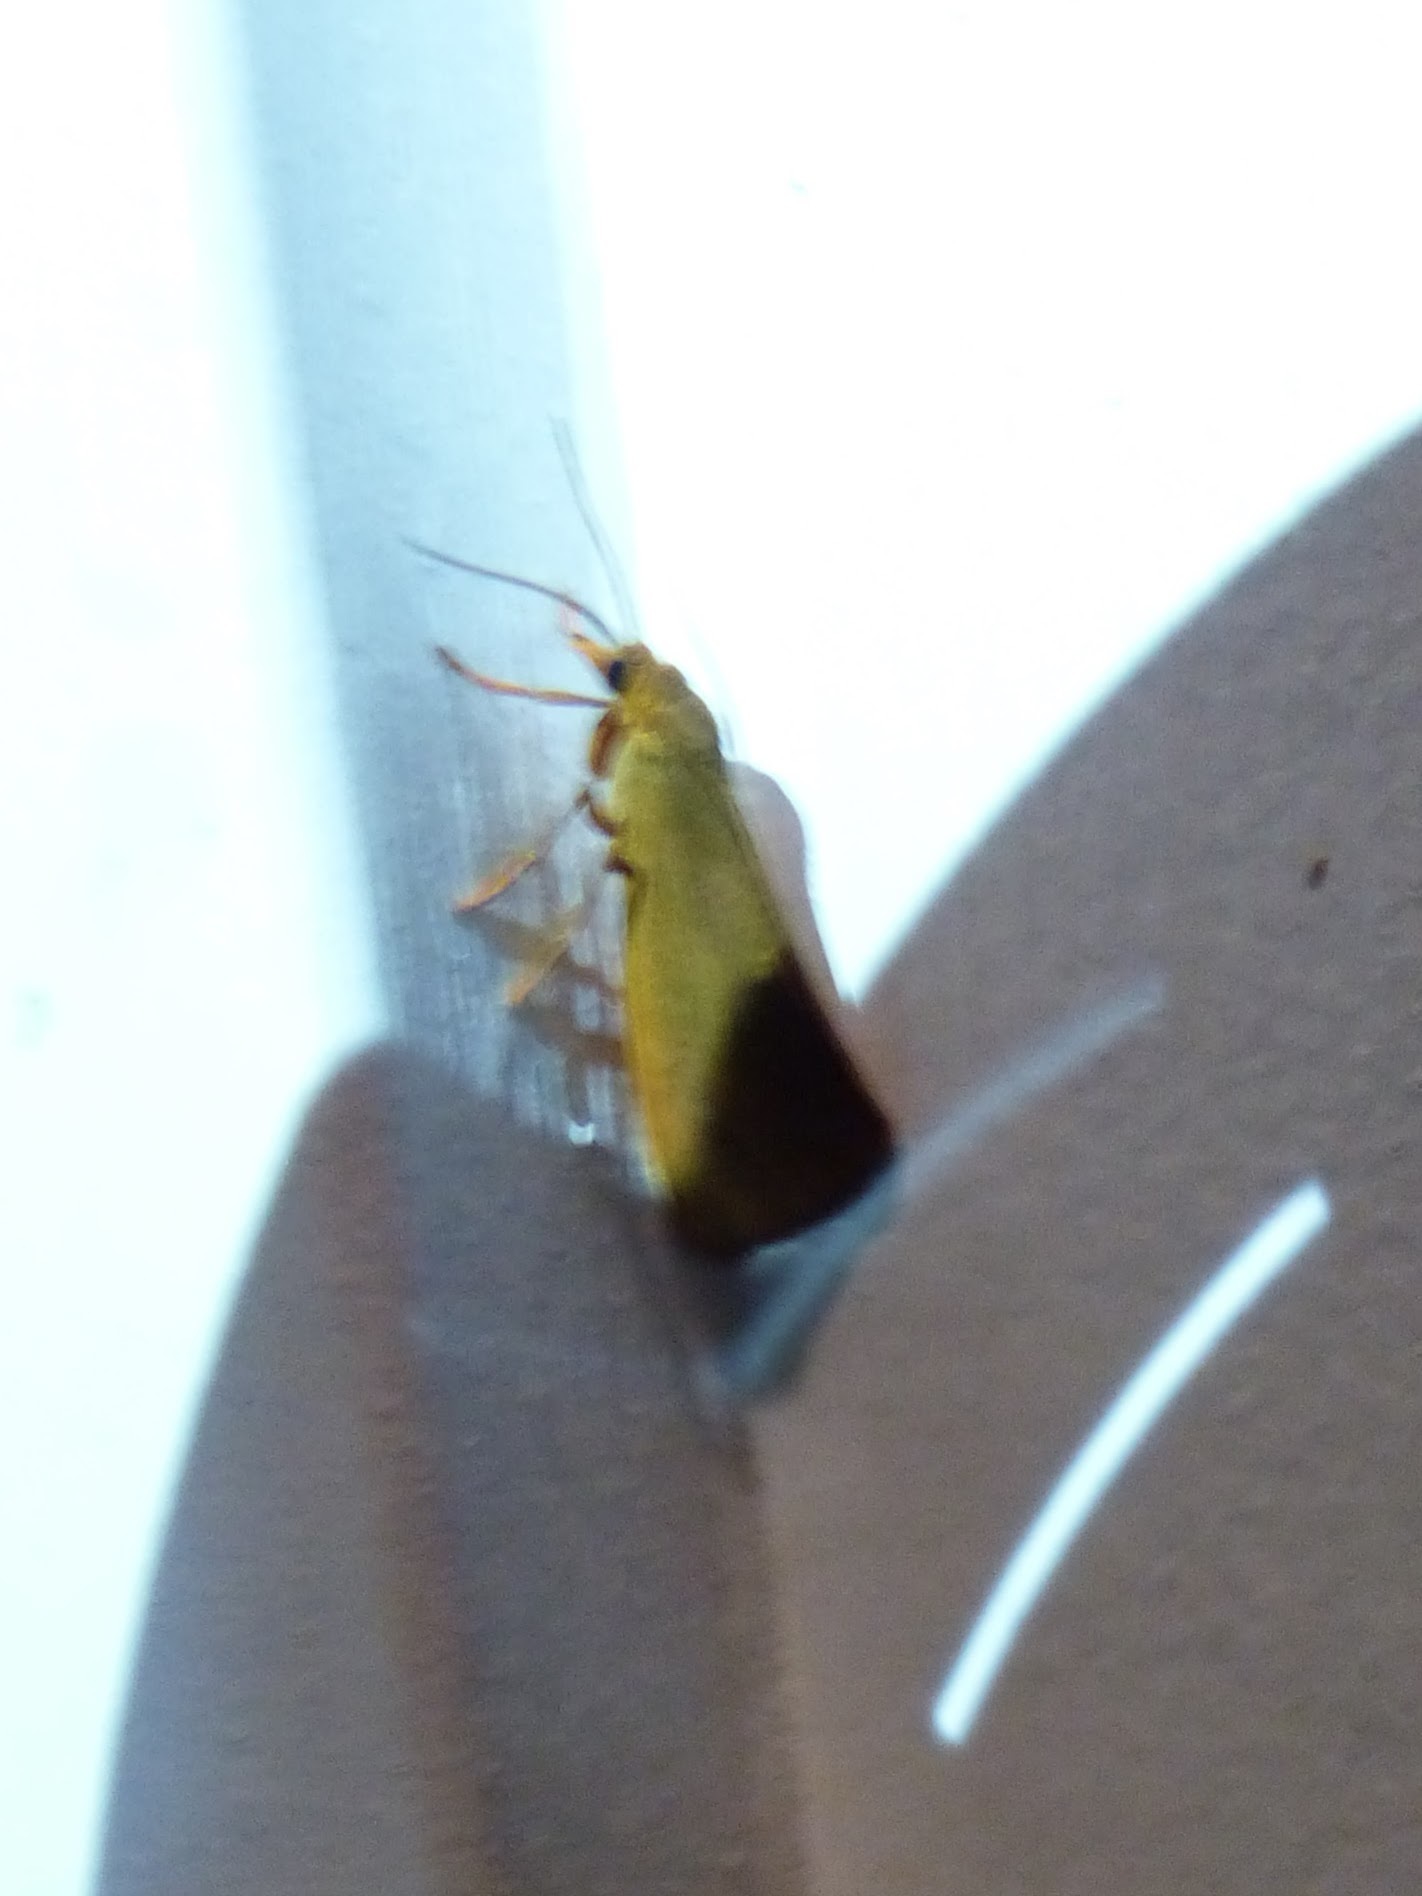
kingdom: Animalia
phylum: Arthropoda
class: Insecta
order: Lepidoptera
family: Erebidae
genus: Virbia
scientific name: Virbia aurantiaca
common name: Orange virbia moth
